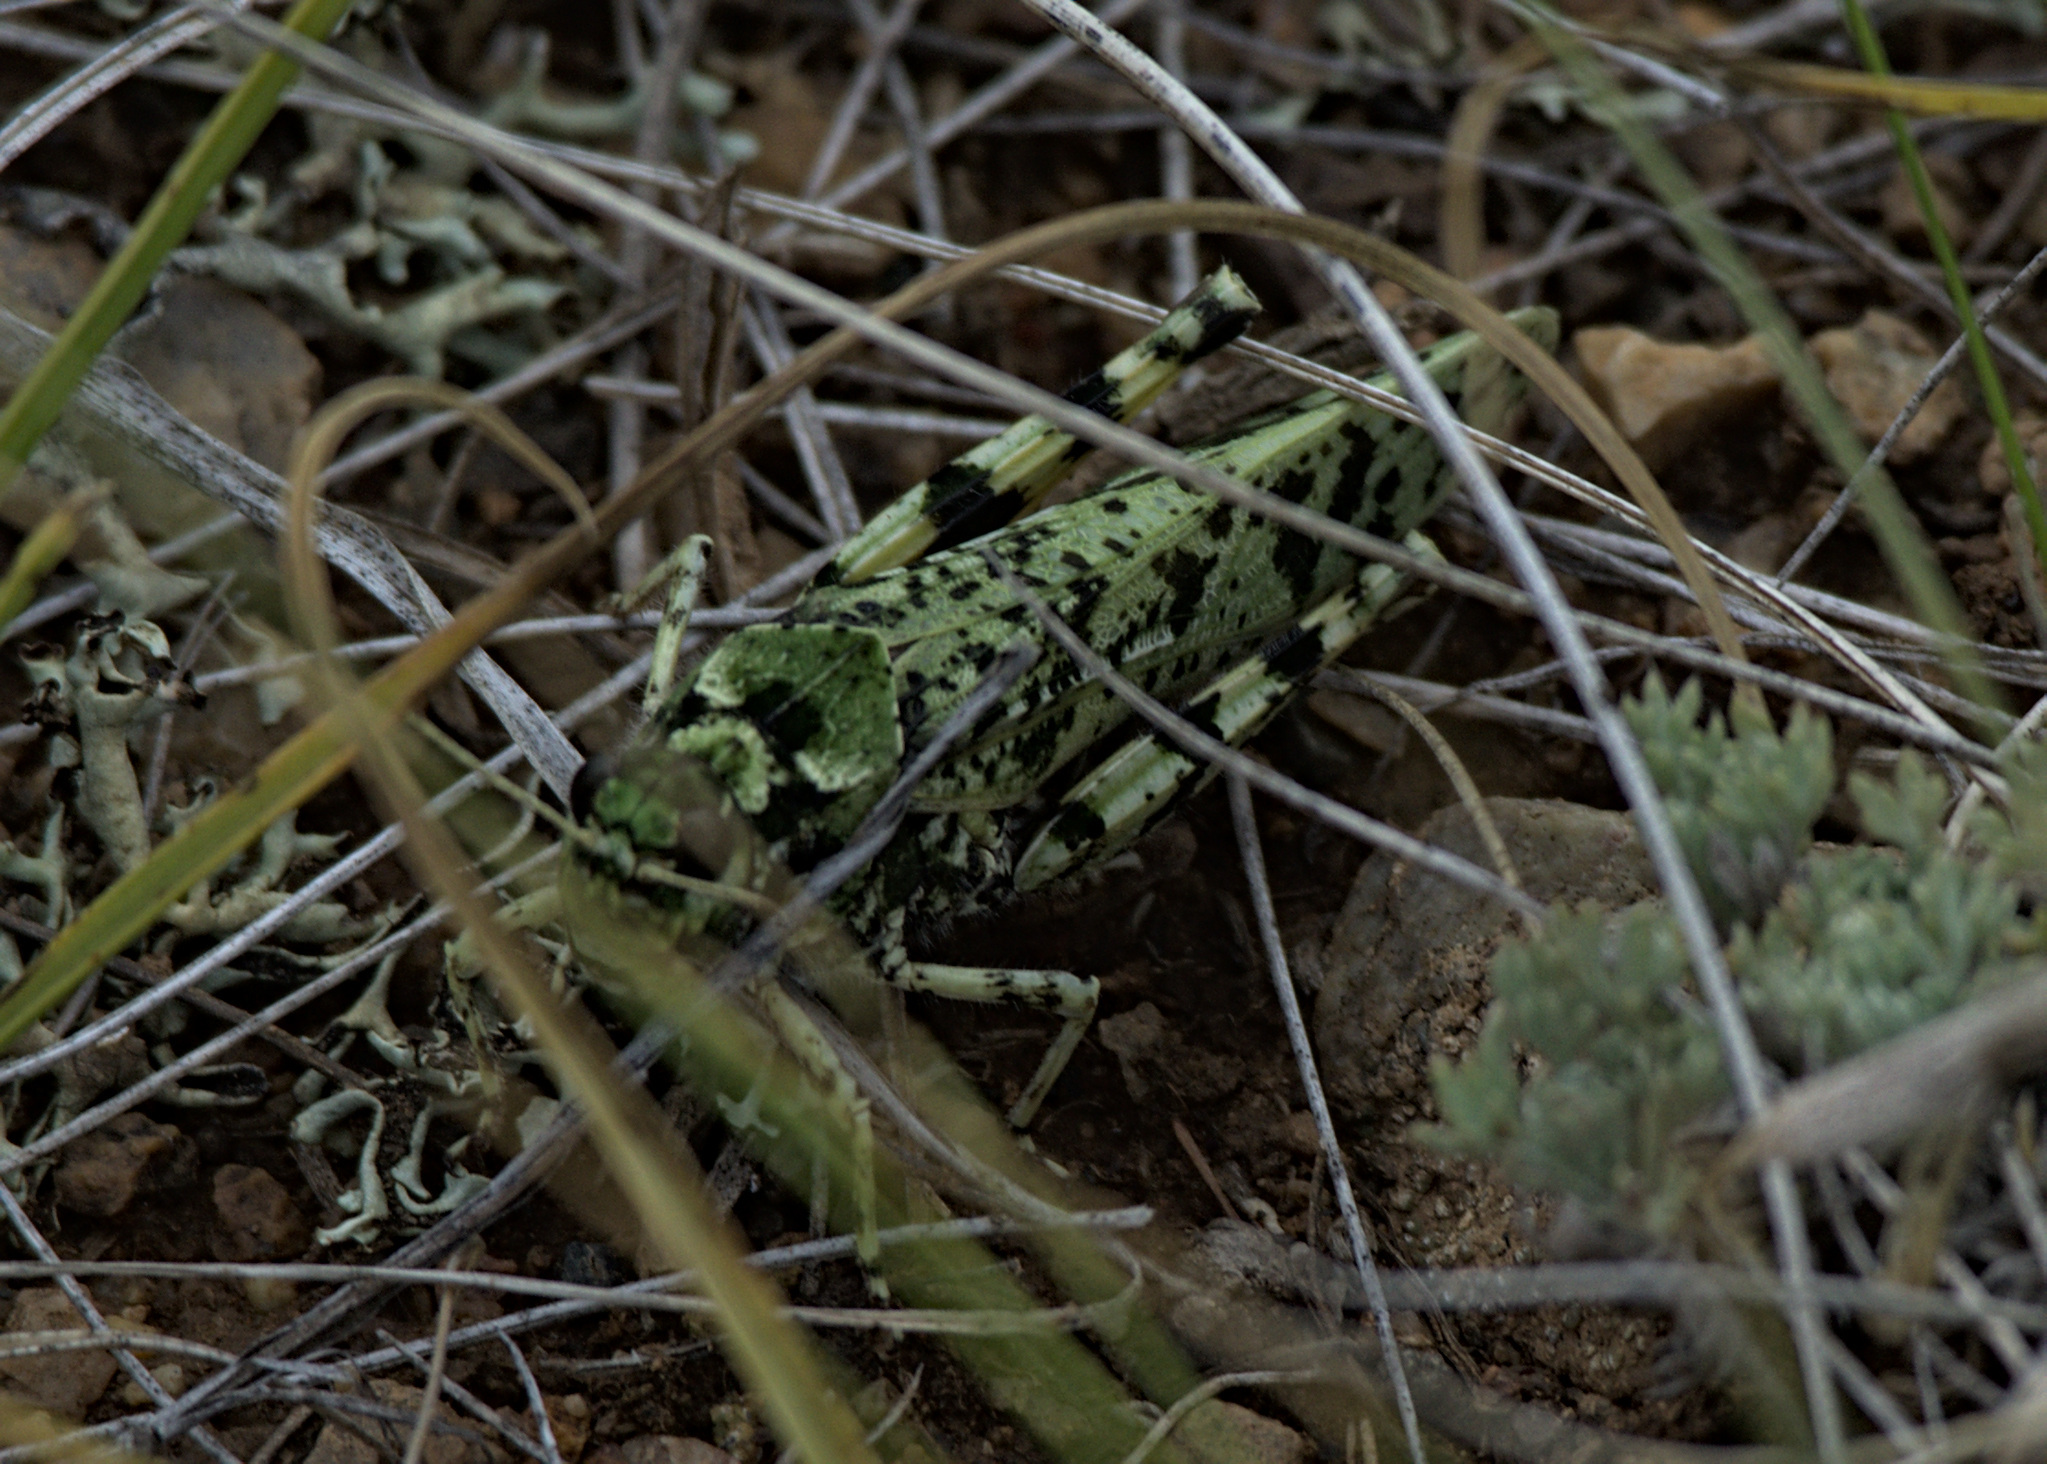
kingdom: Animalia
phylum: Arthropoda
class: Insecta
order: Orthoptera
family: Acrididae
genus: Angaracris
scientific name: Angaracris barabensis
